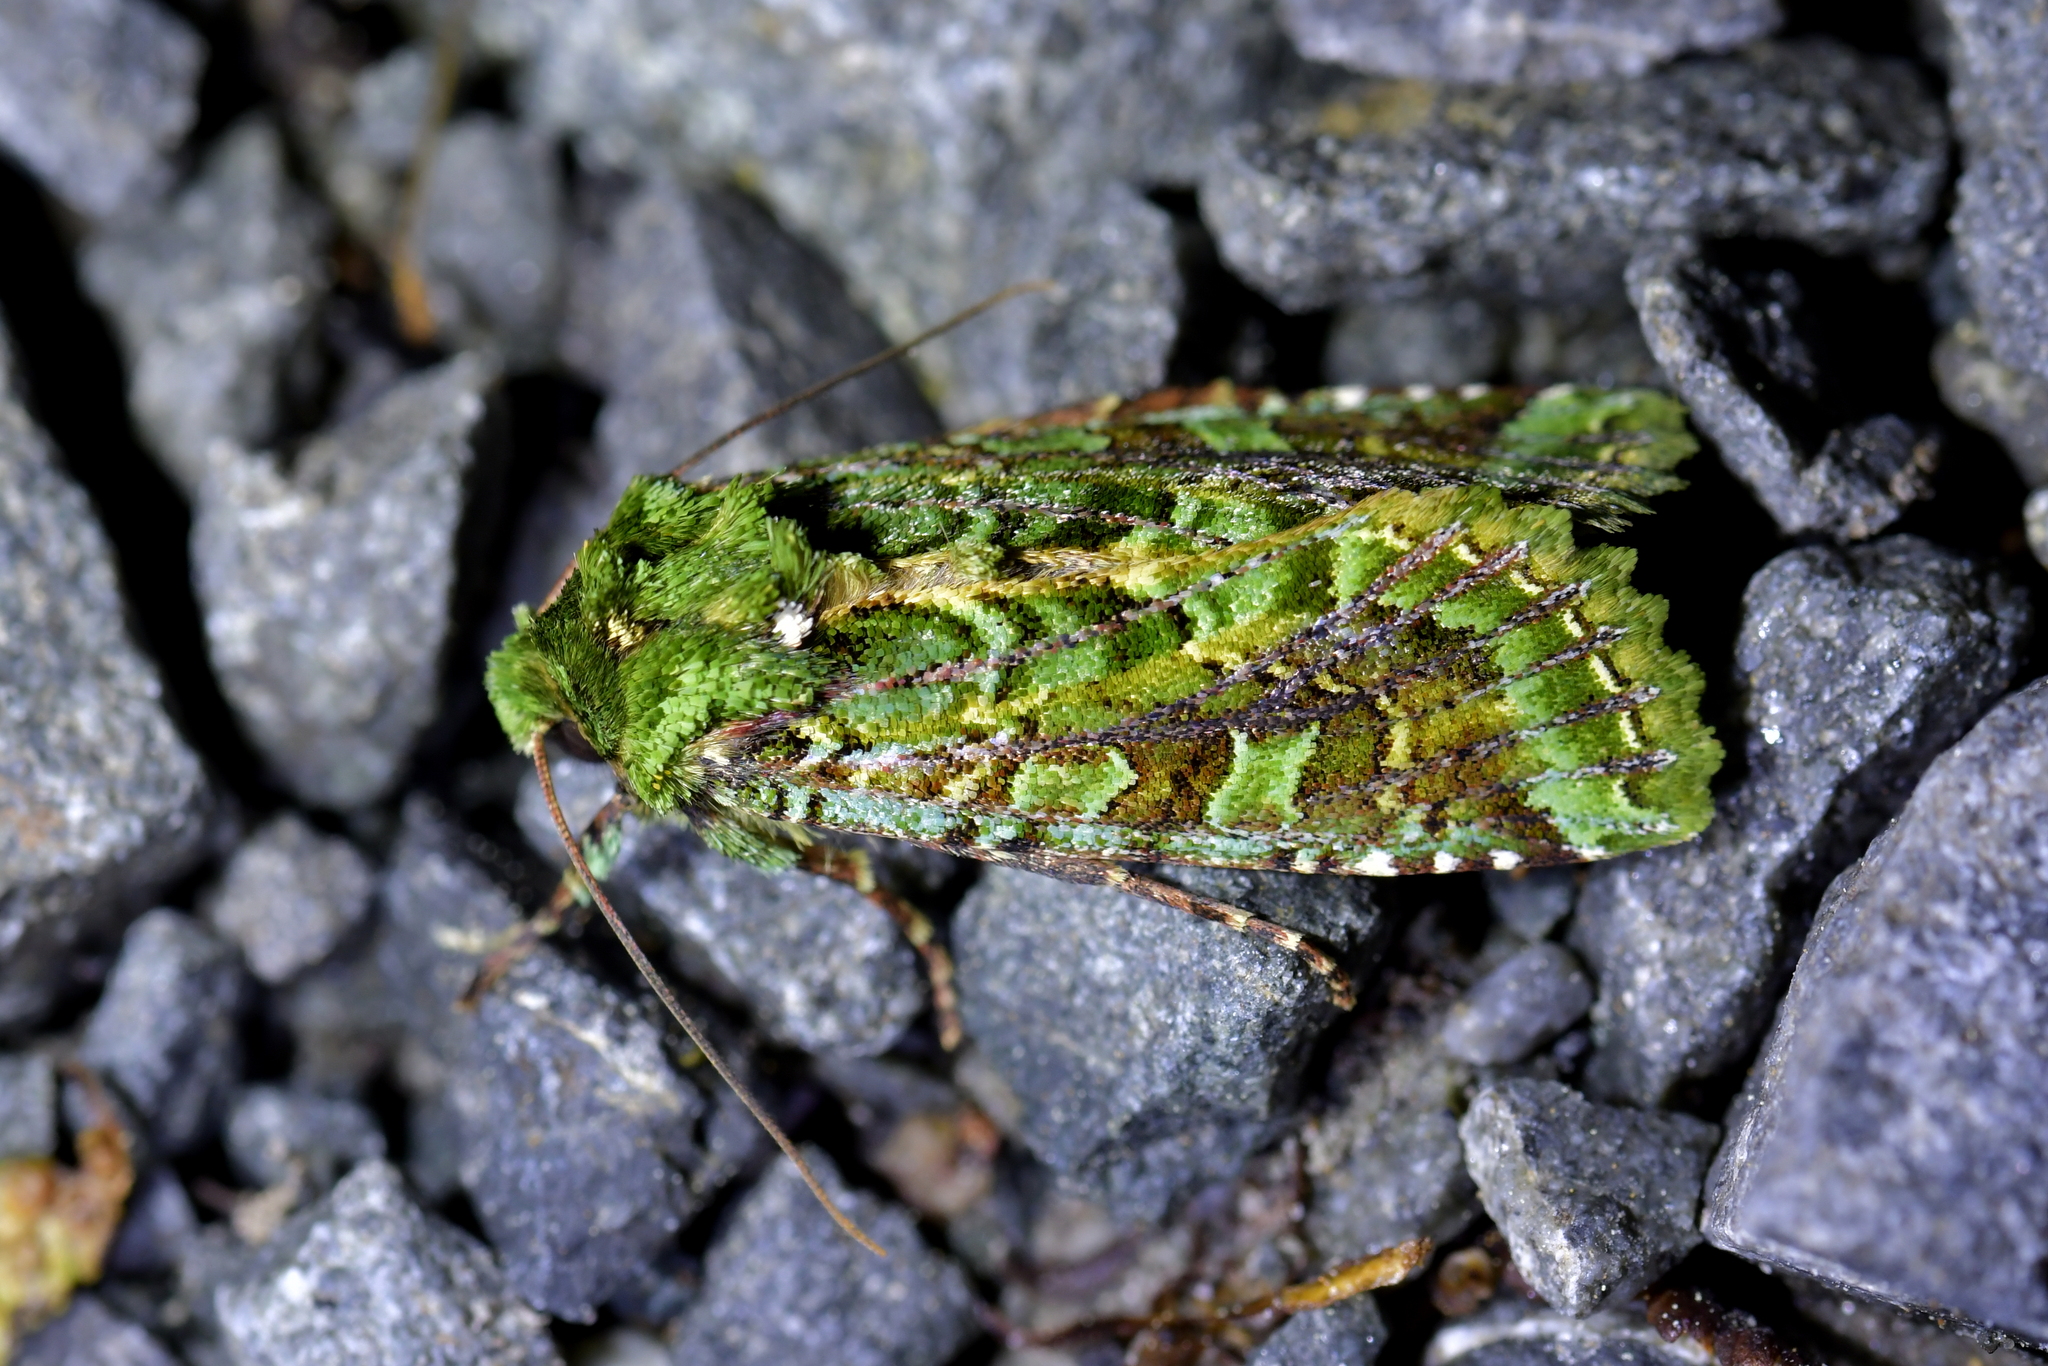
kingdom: Animalia
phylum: Arthropoda
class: Insecta
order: Lepidoptera
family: Noctuidae
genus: Feredayia
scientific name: Feredayia grammosa
